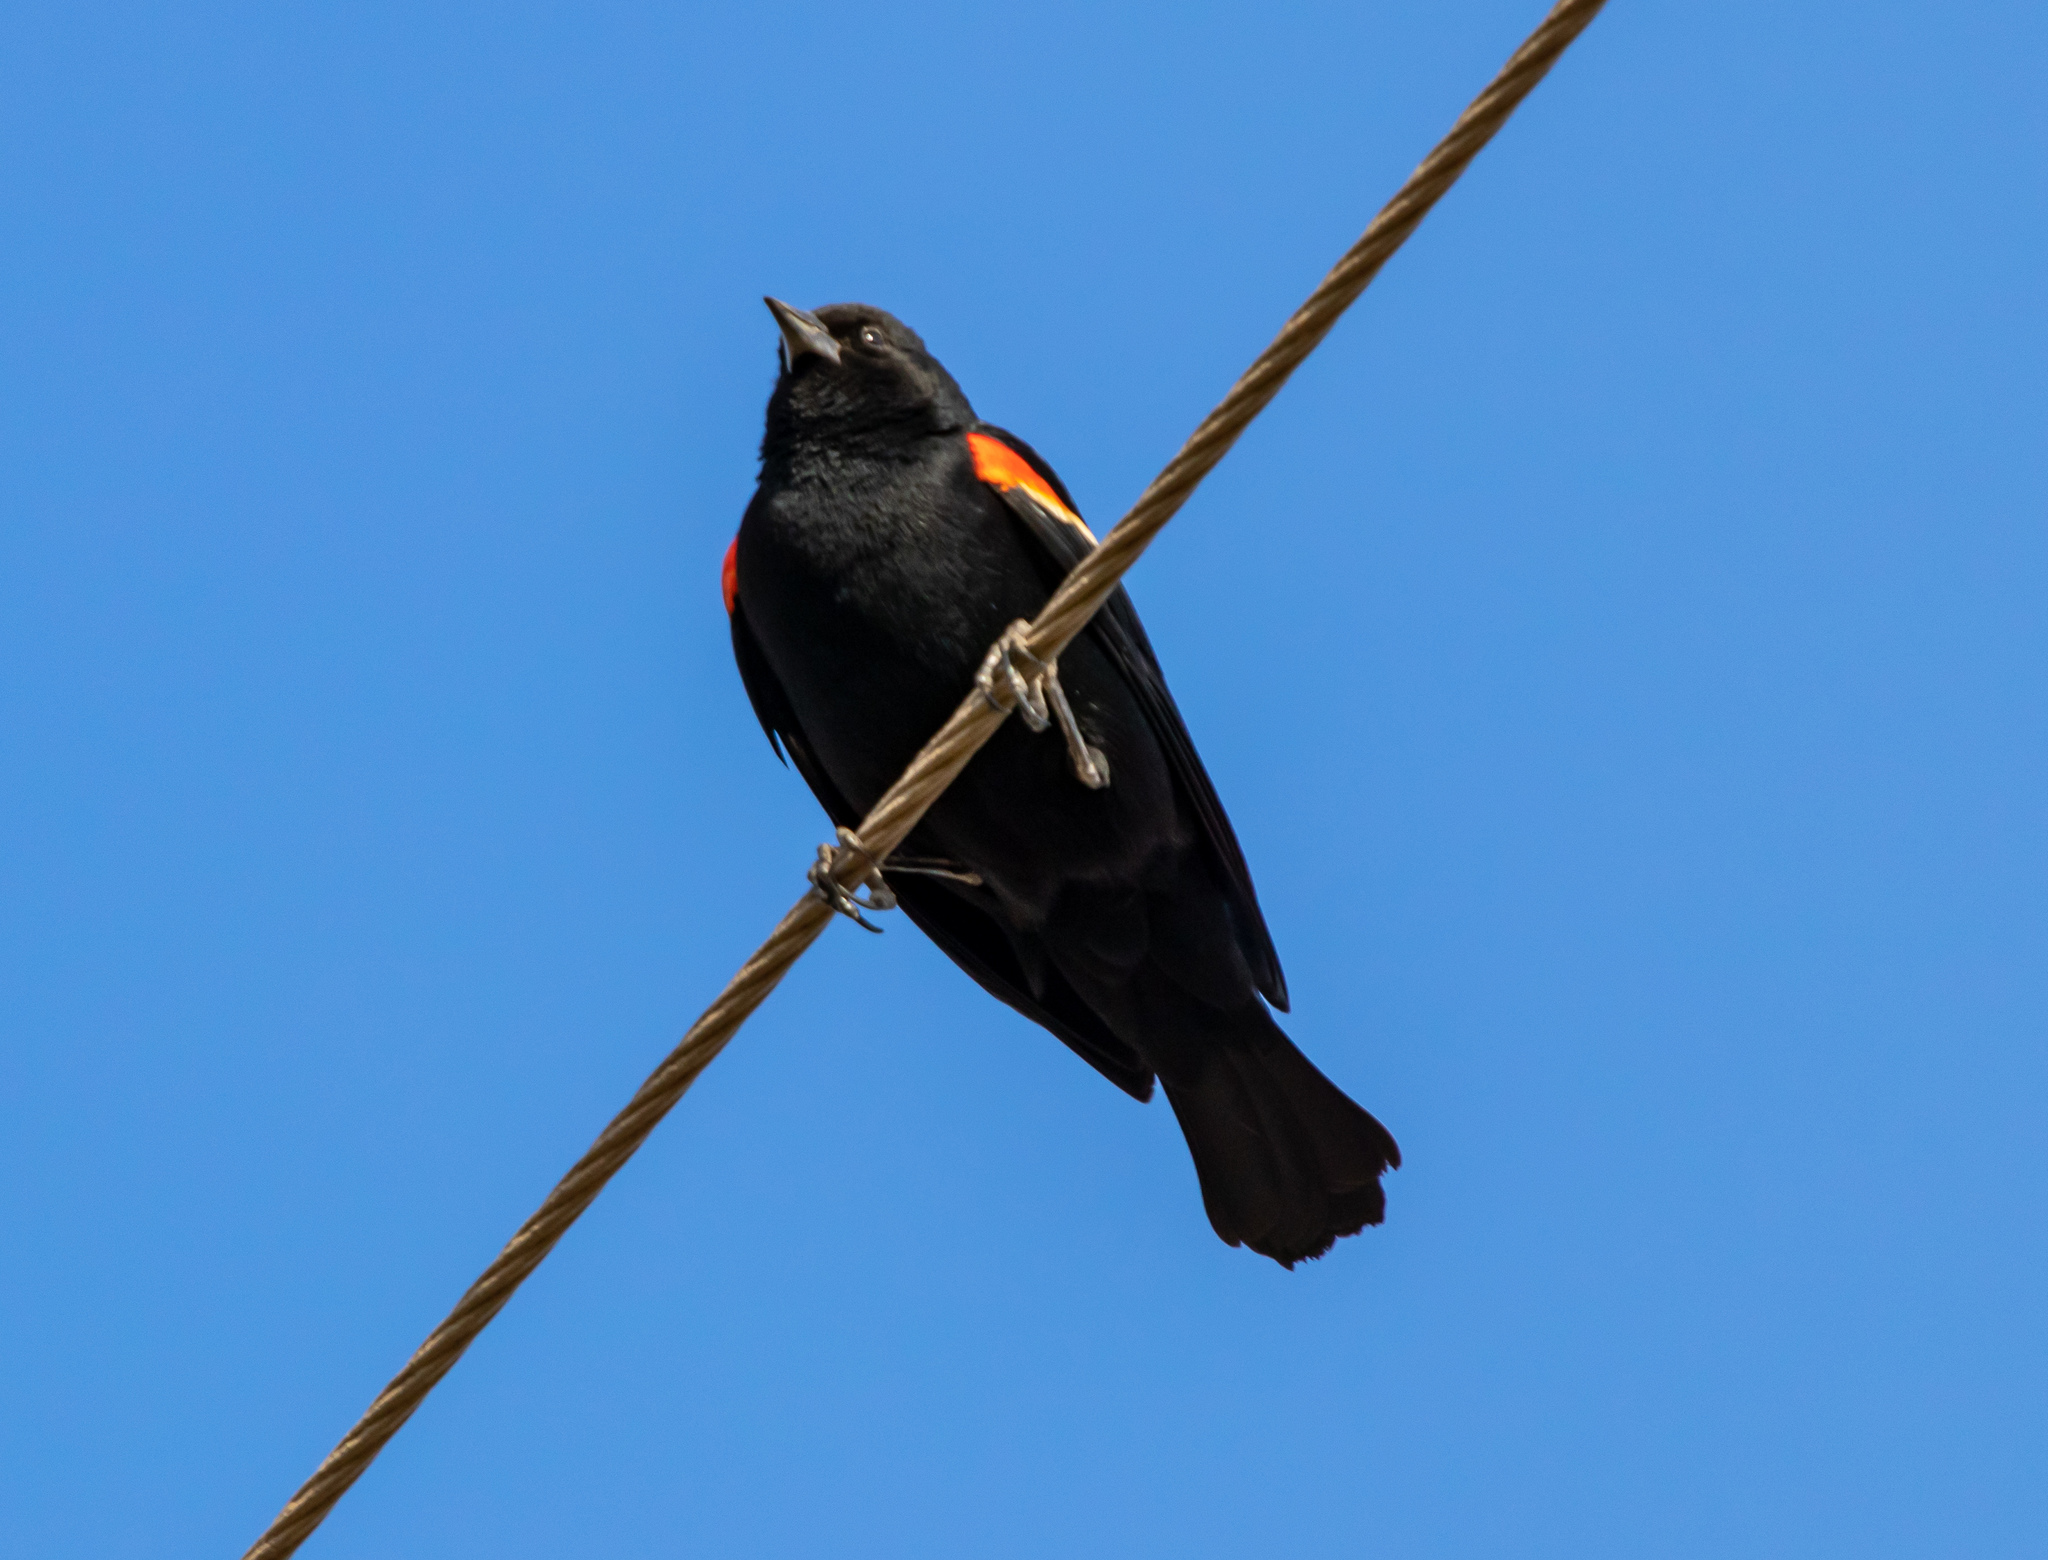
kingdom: Animalia
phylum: Chordata
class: Aves
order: Passeriformes
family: Icteridae
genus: Agelaius
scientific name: Agelaius phoeniceus
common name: Red-winged blackbird
